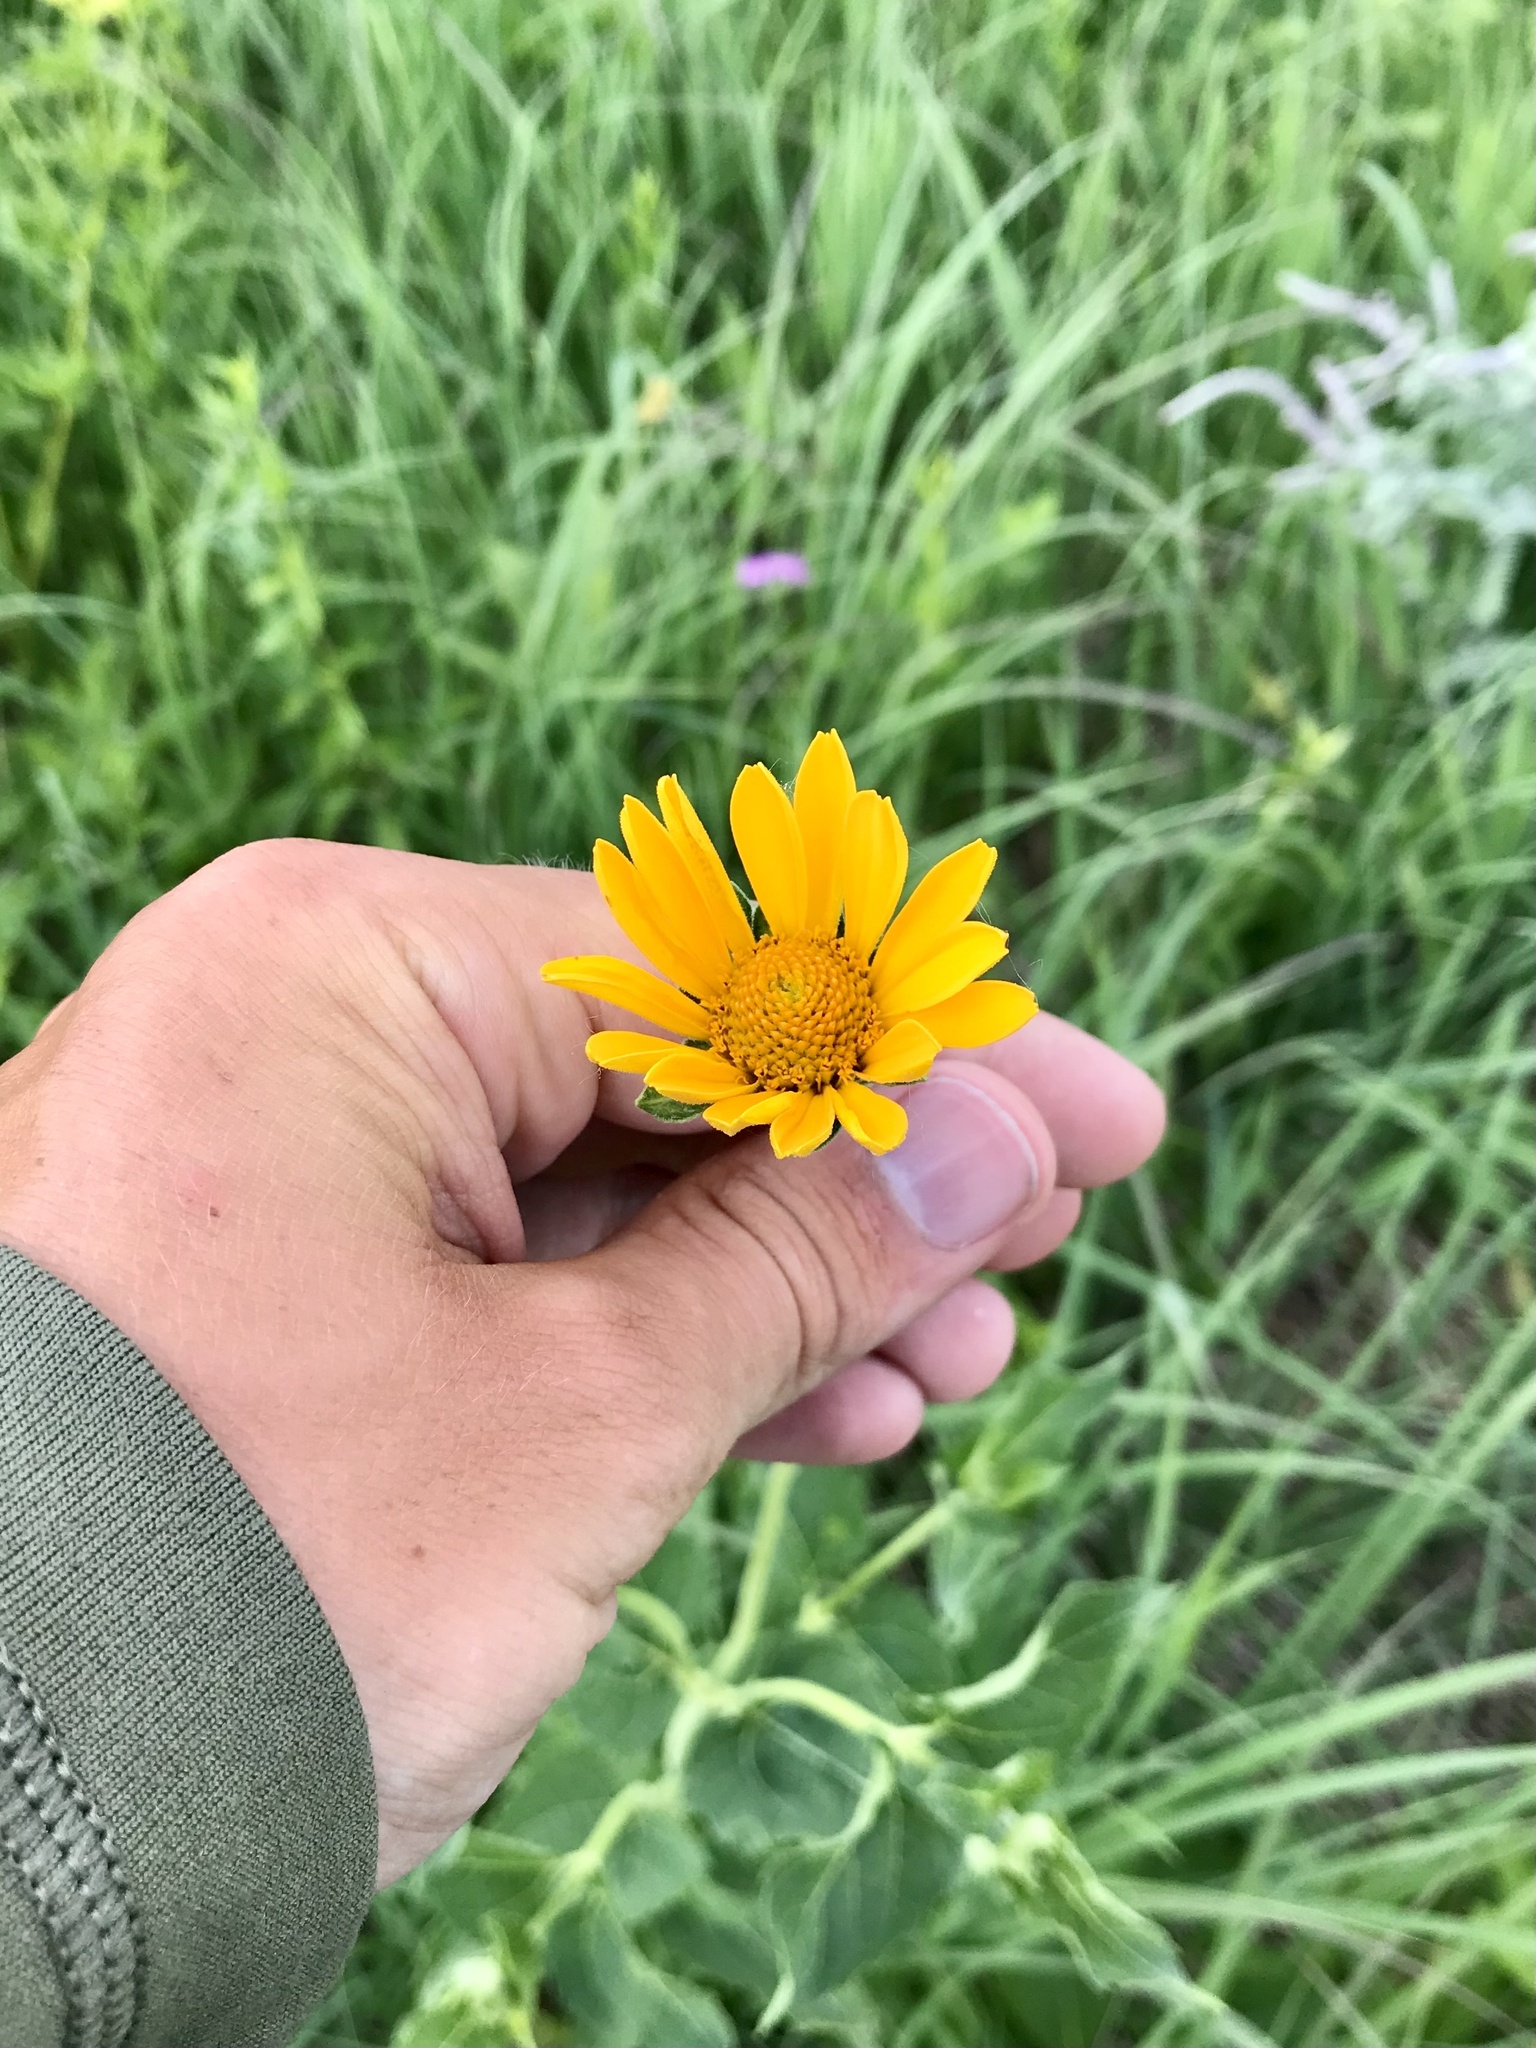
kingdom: Plantae
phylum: Tracheophyta
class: Magnoliopsida
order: Asterales
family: Asteraceae
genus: Heliopsis
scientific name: Heliopsis helianthoides
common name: False sunflower
